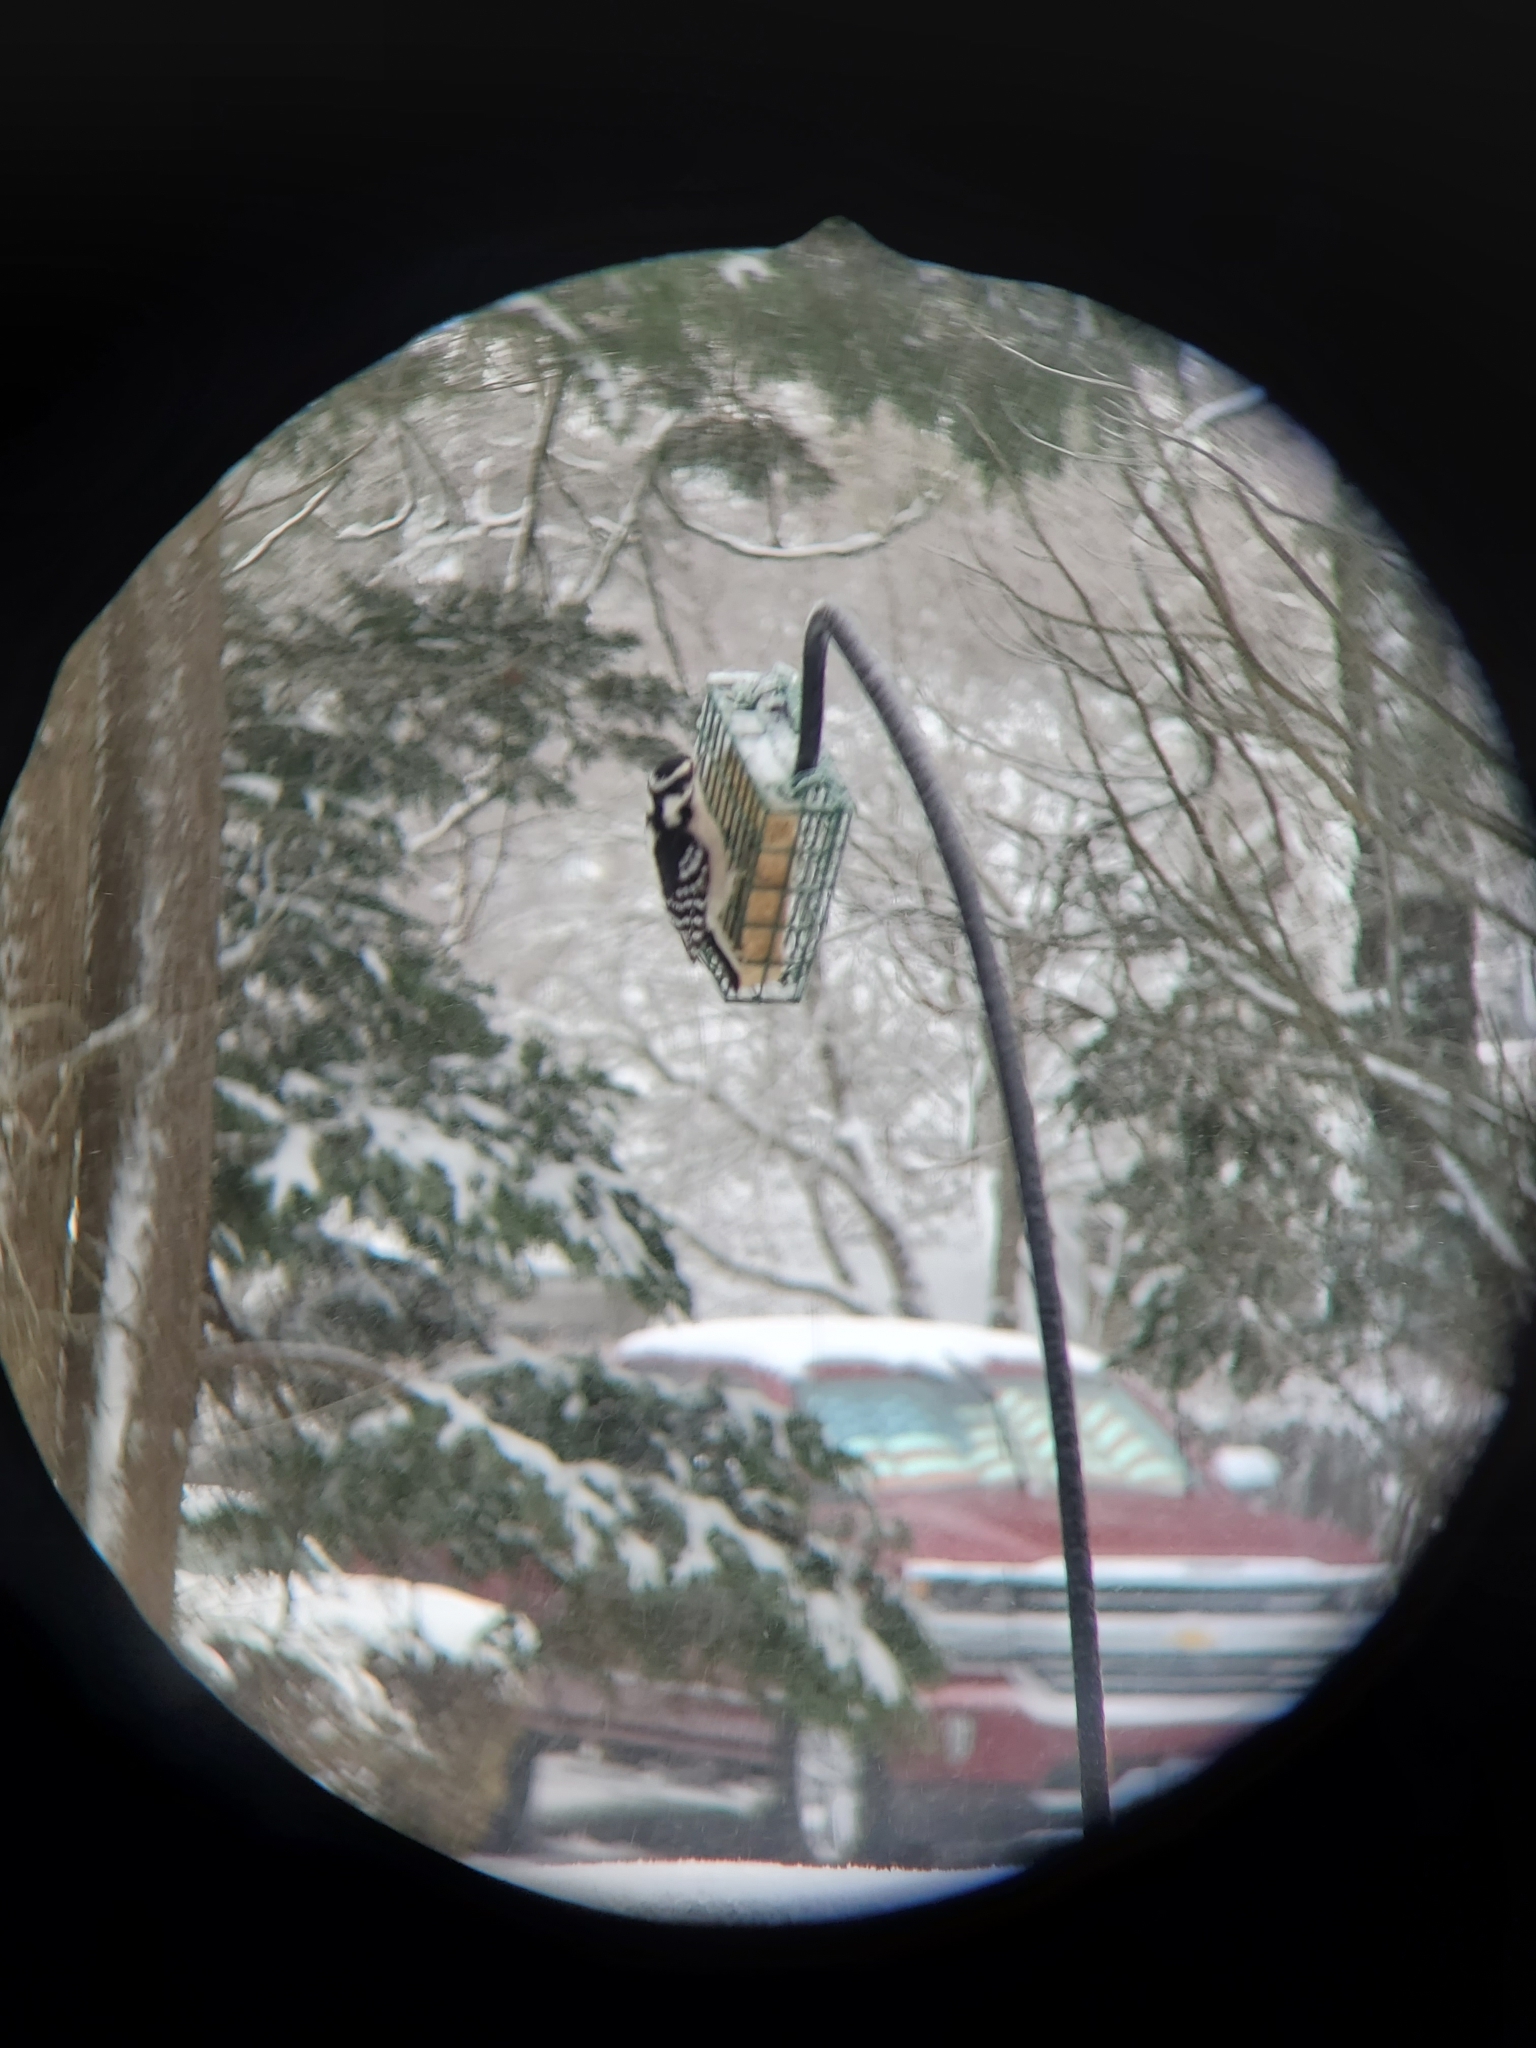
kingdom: Animalia
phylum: Chordata
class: Aves
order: Piciformes
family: Picidae
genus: Dryobates
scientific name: Dryobates pubescens
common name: Downy woodpecker
